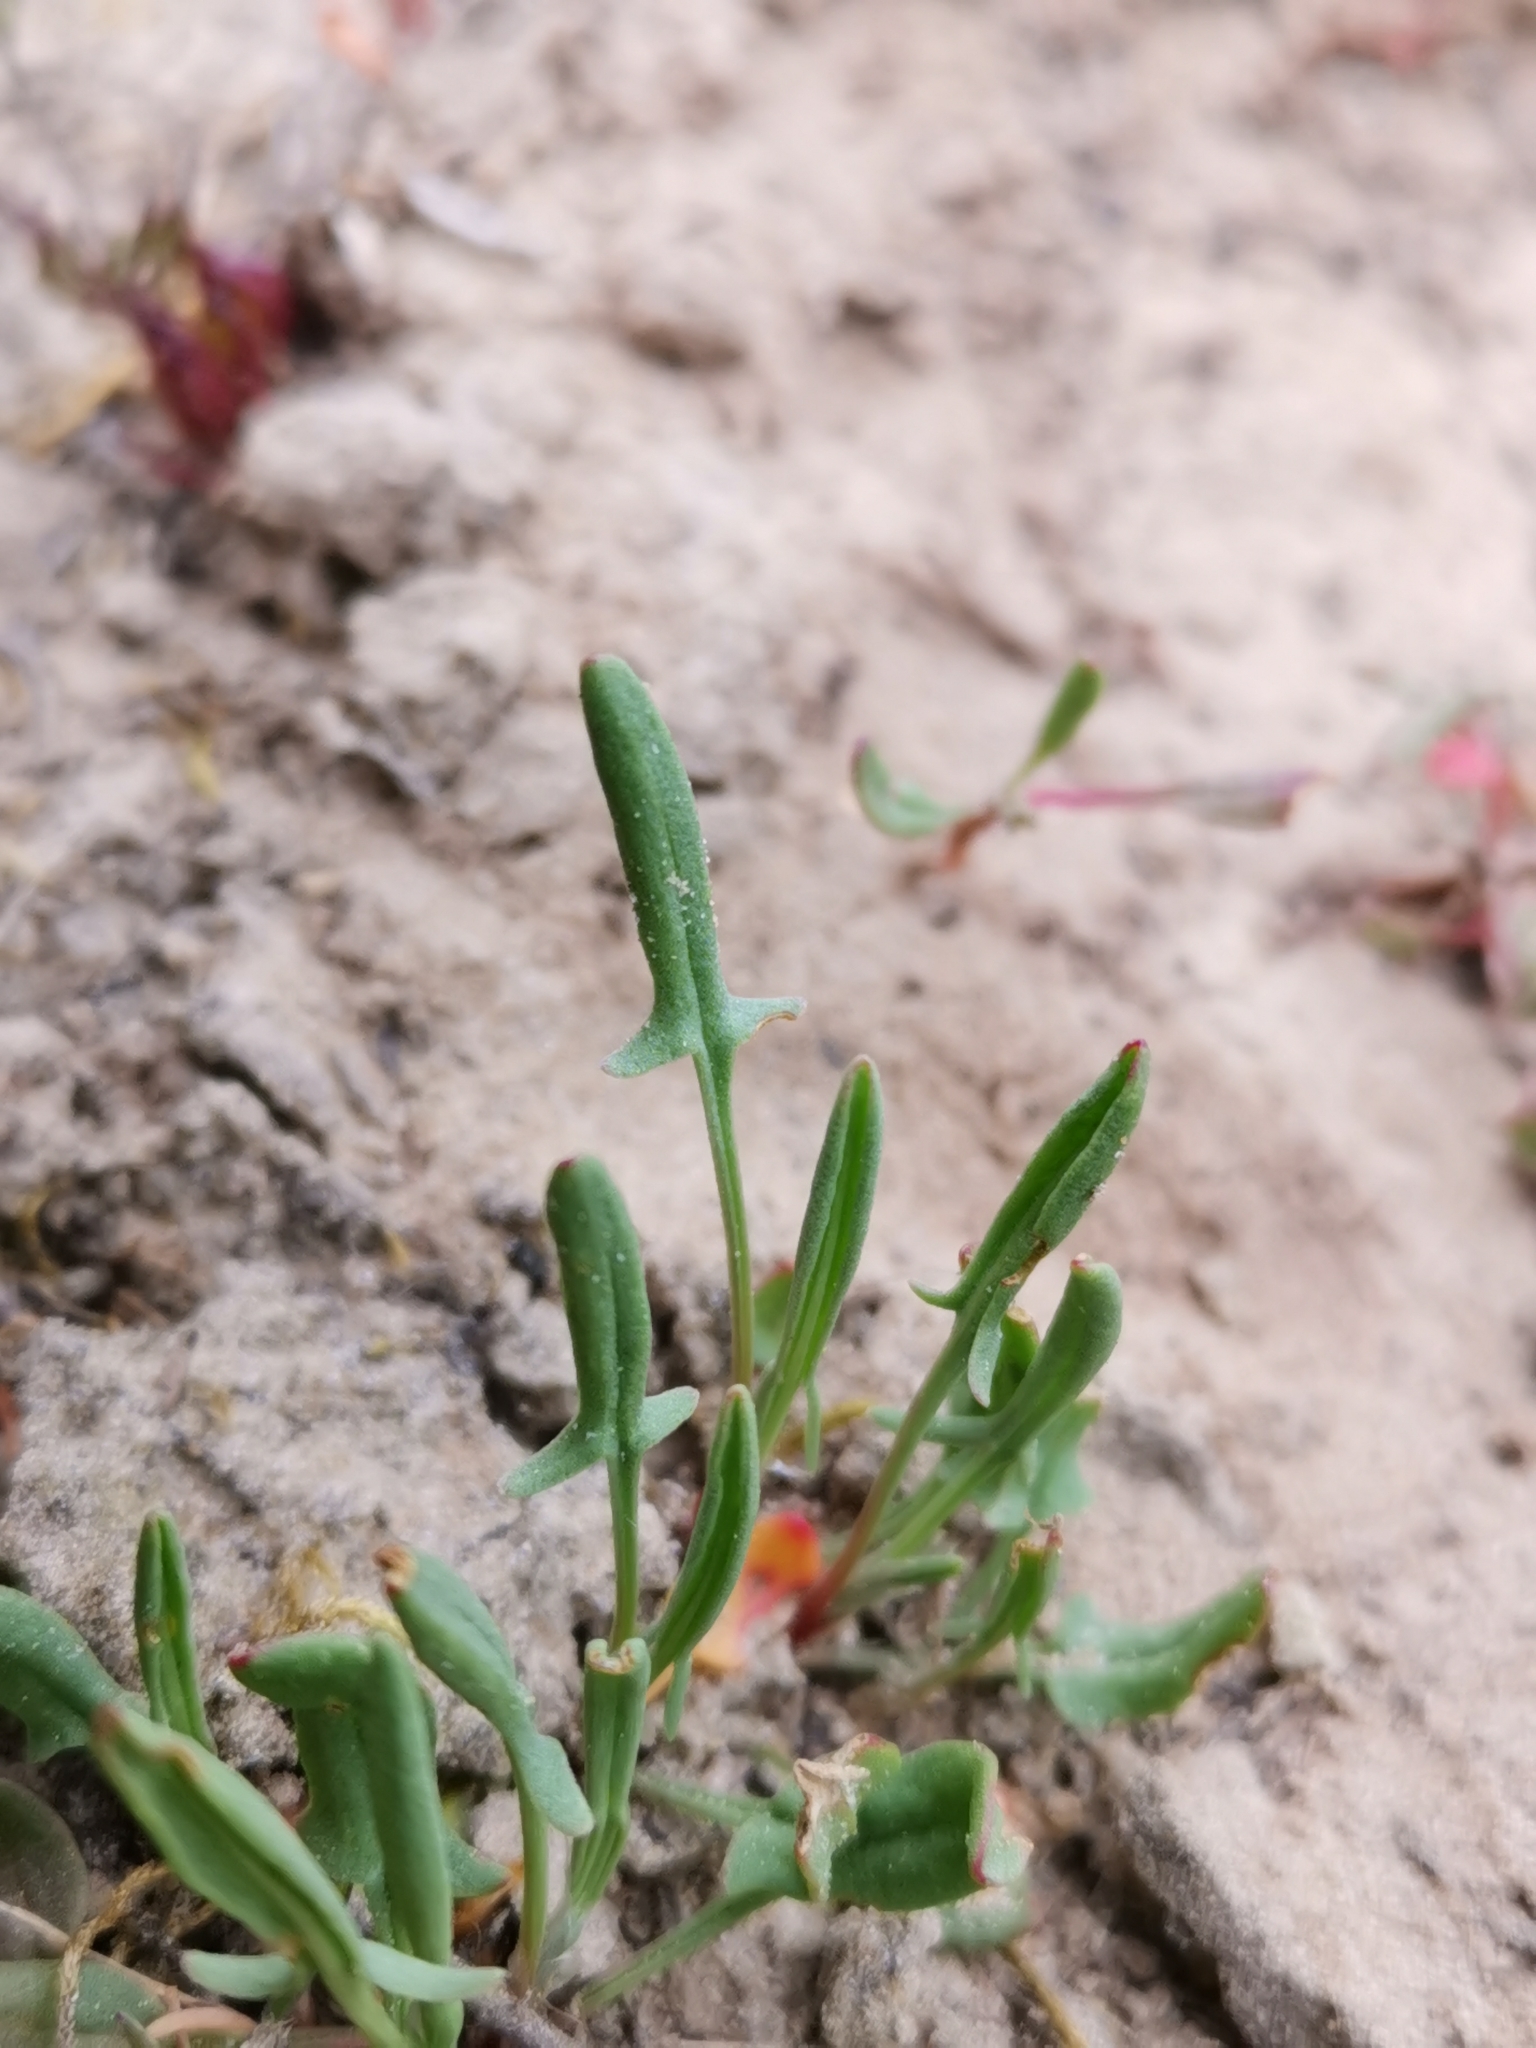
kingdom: Plantae
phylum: Tracheophyta
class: Magnoliopsida
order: Caryophyllales
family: Polygonaceae
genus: Rumex
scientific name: Rumex acetosella
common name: Common sheep sorrel
